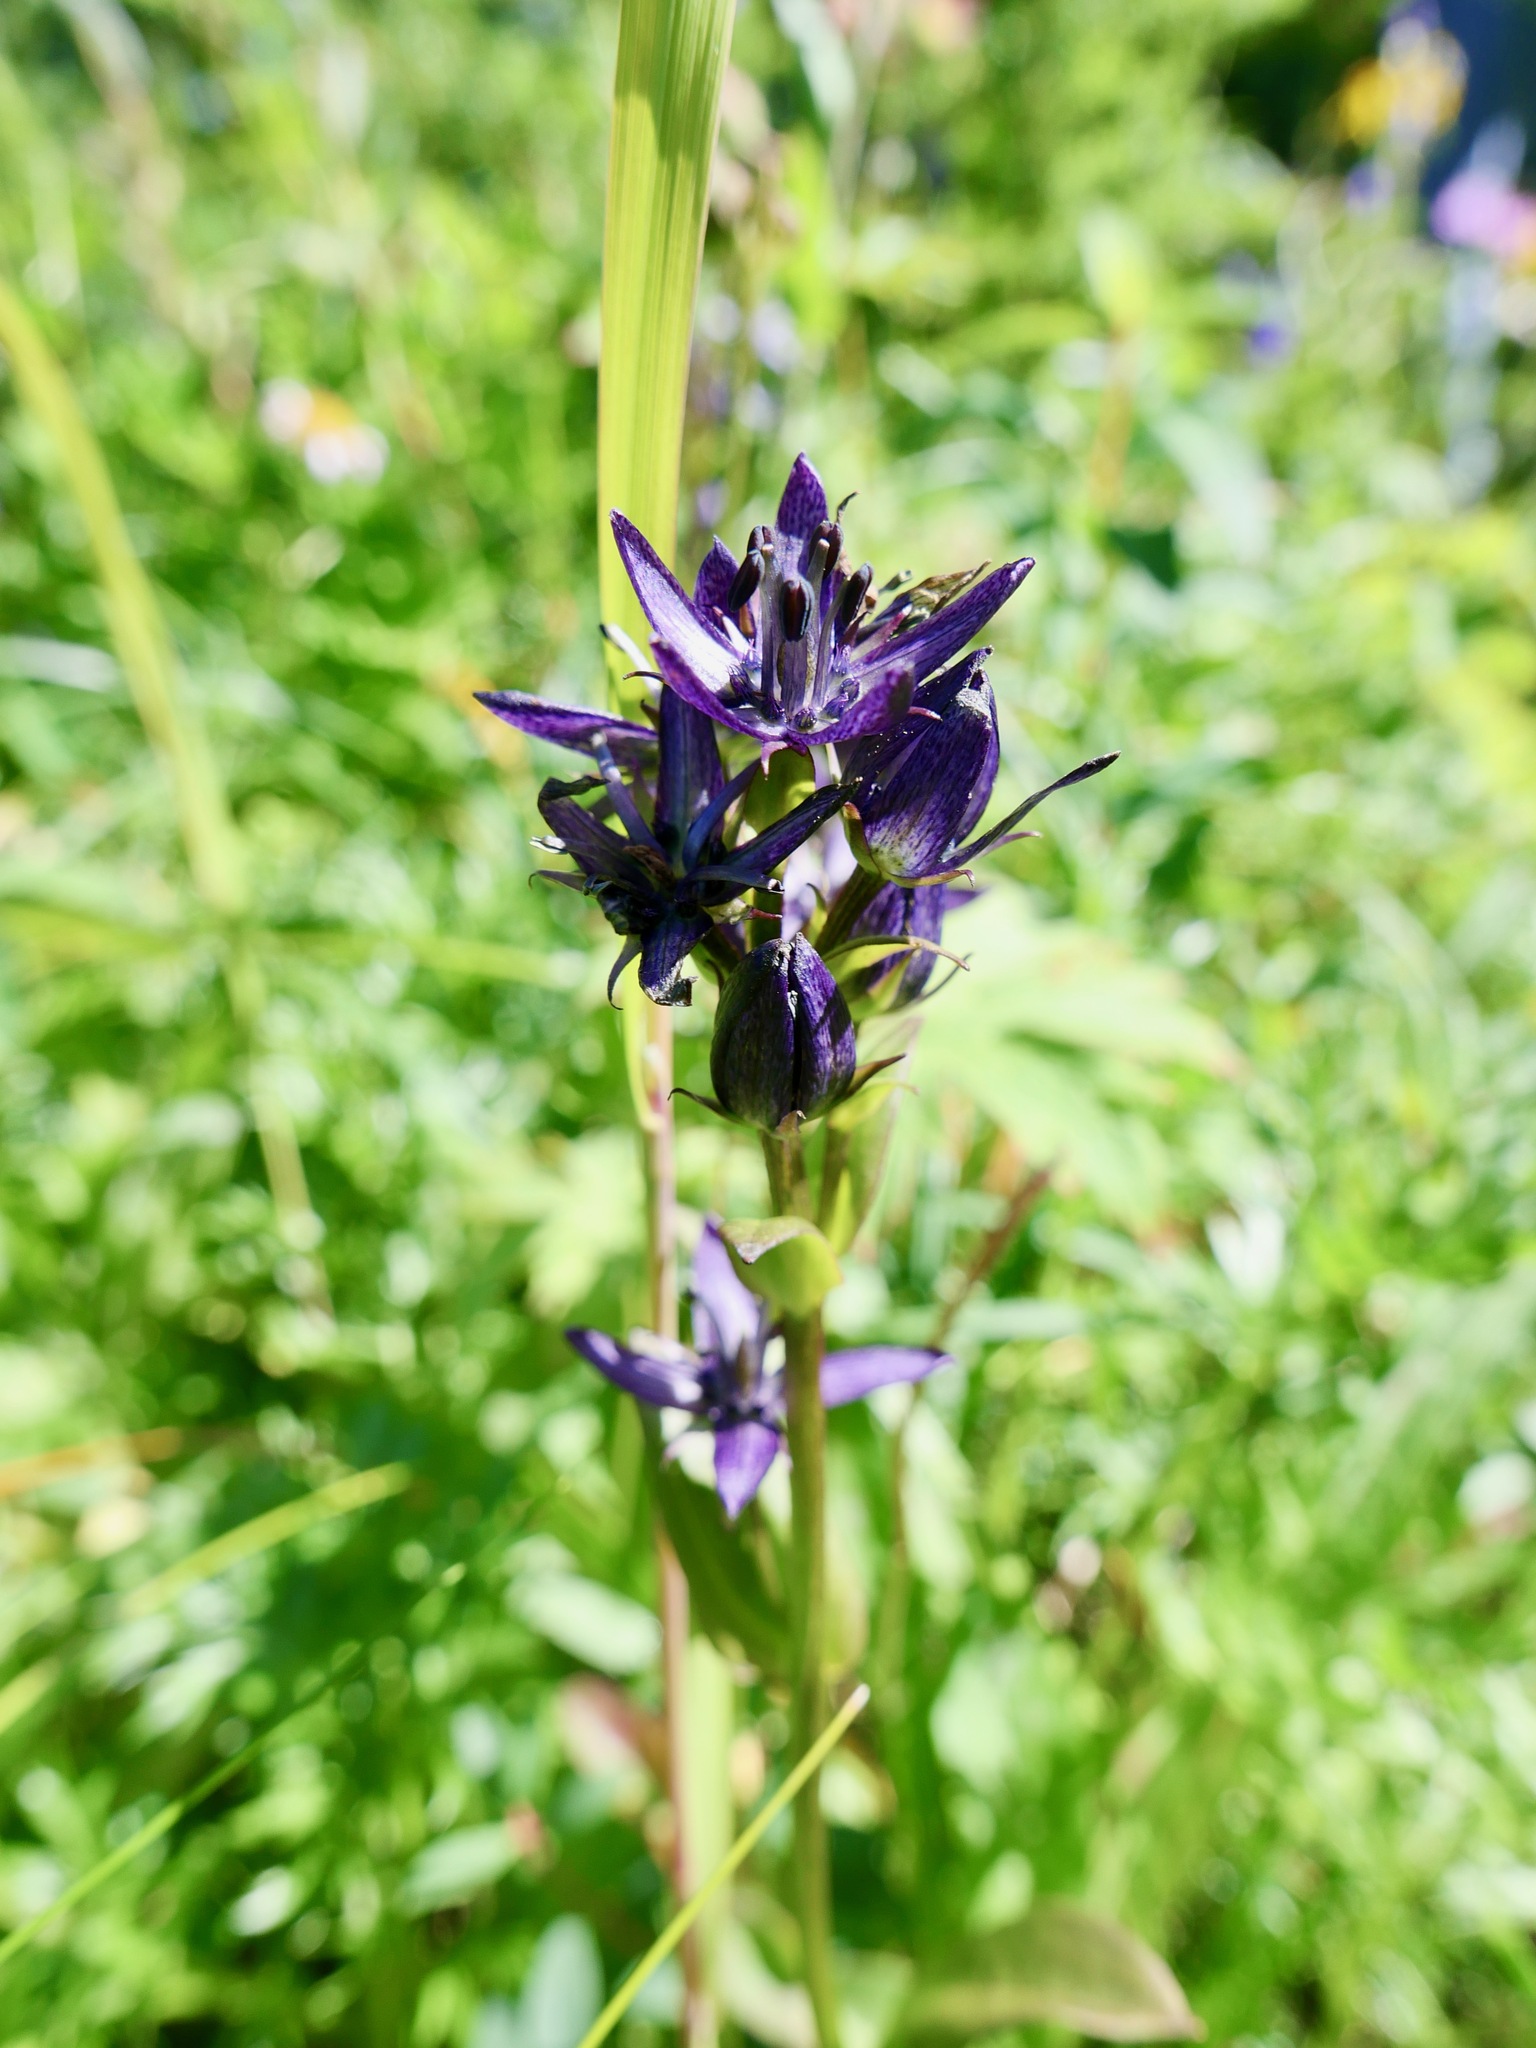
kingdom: Plantae
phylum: Tracheophyta
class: Magnoliopsida
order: Gentianales
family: Gentianaceae
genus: Swertia
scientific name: Swertia perennis
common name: Alpine bog swertia
